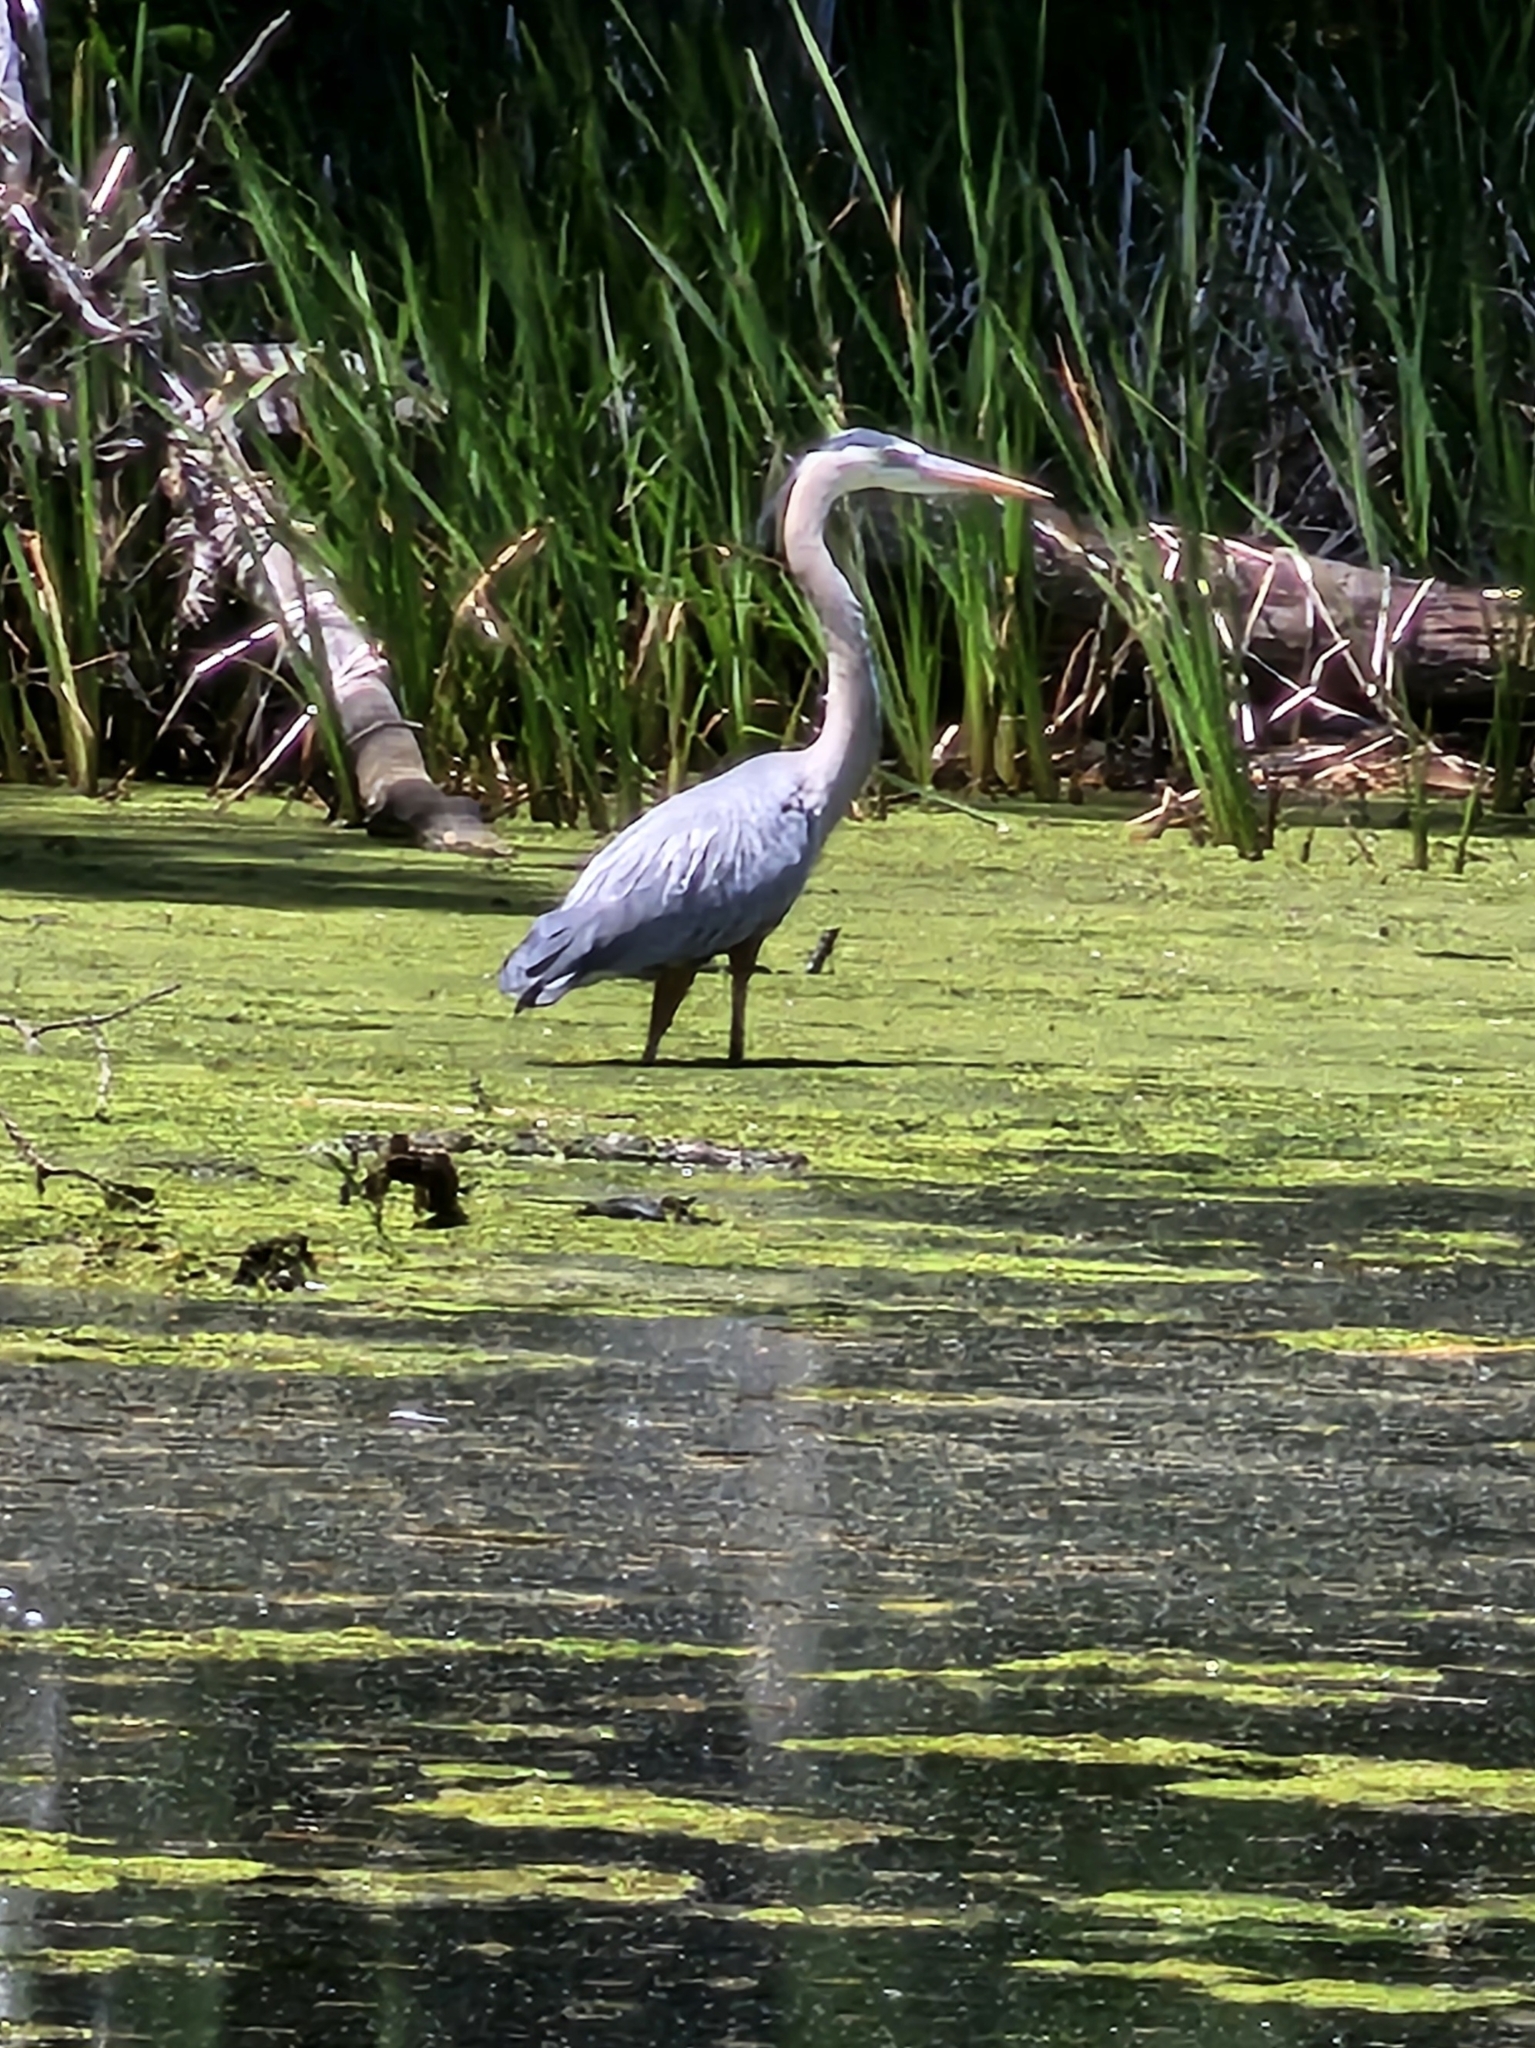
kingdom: Animalia
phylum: Chordata
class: Aves
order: Pelecaniformes
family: Ardeidae
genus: Ardea
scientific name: Ardea herodias
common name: Great blue heron
